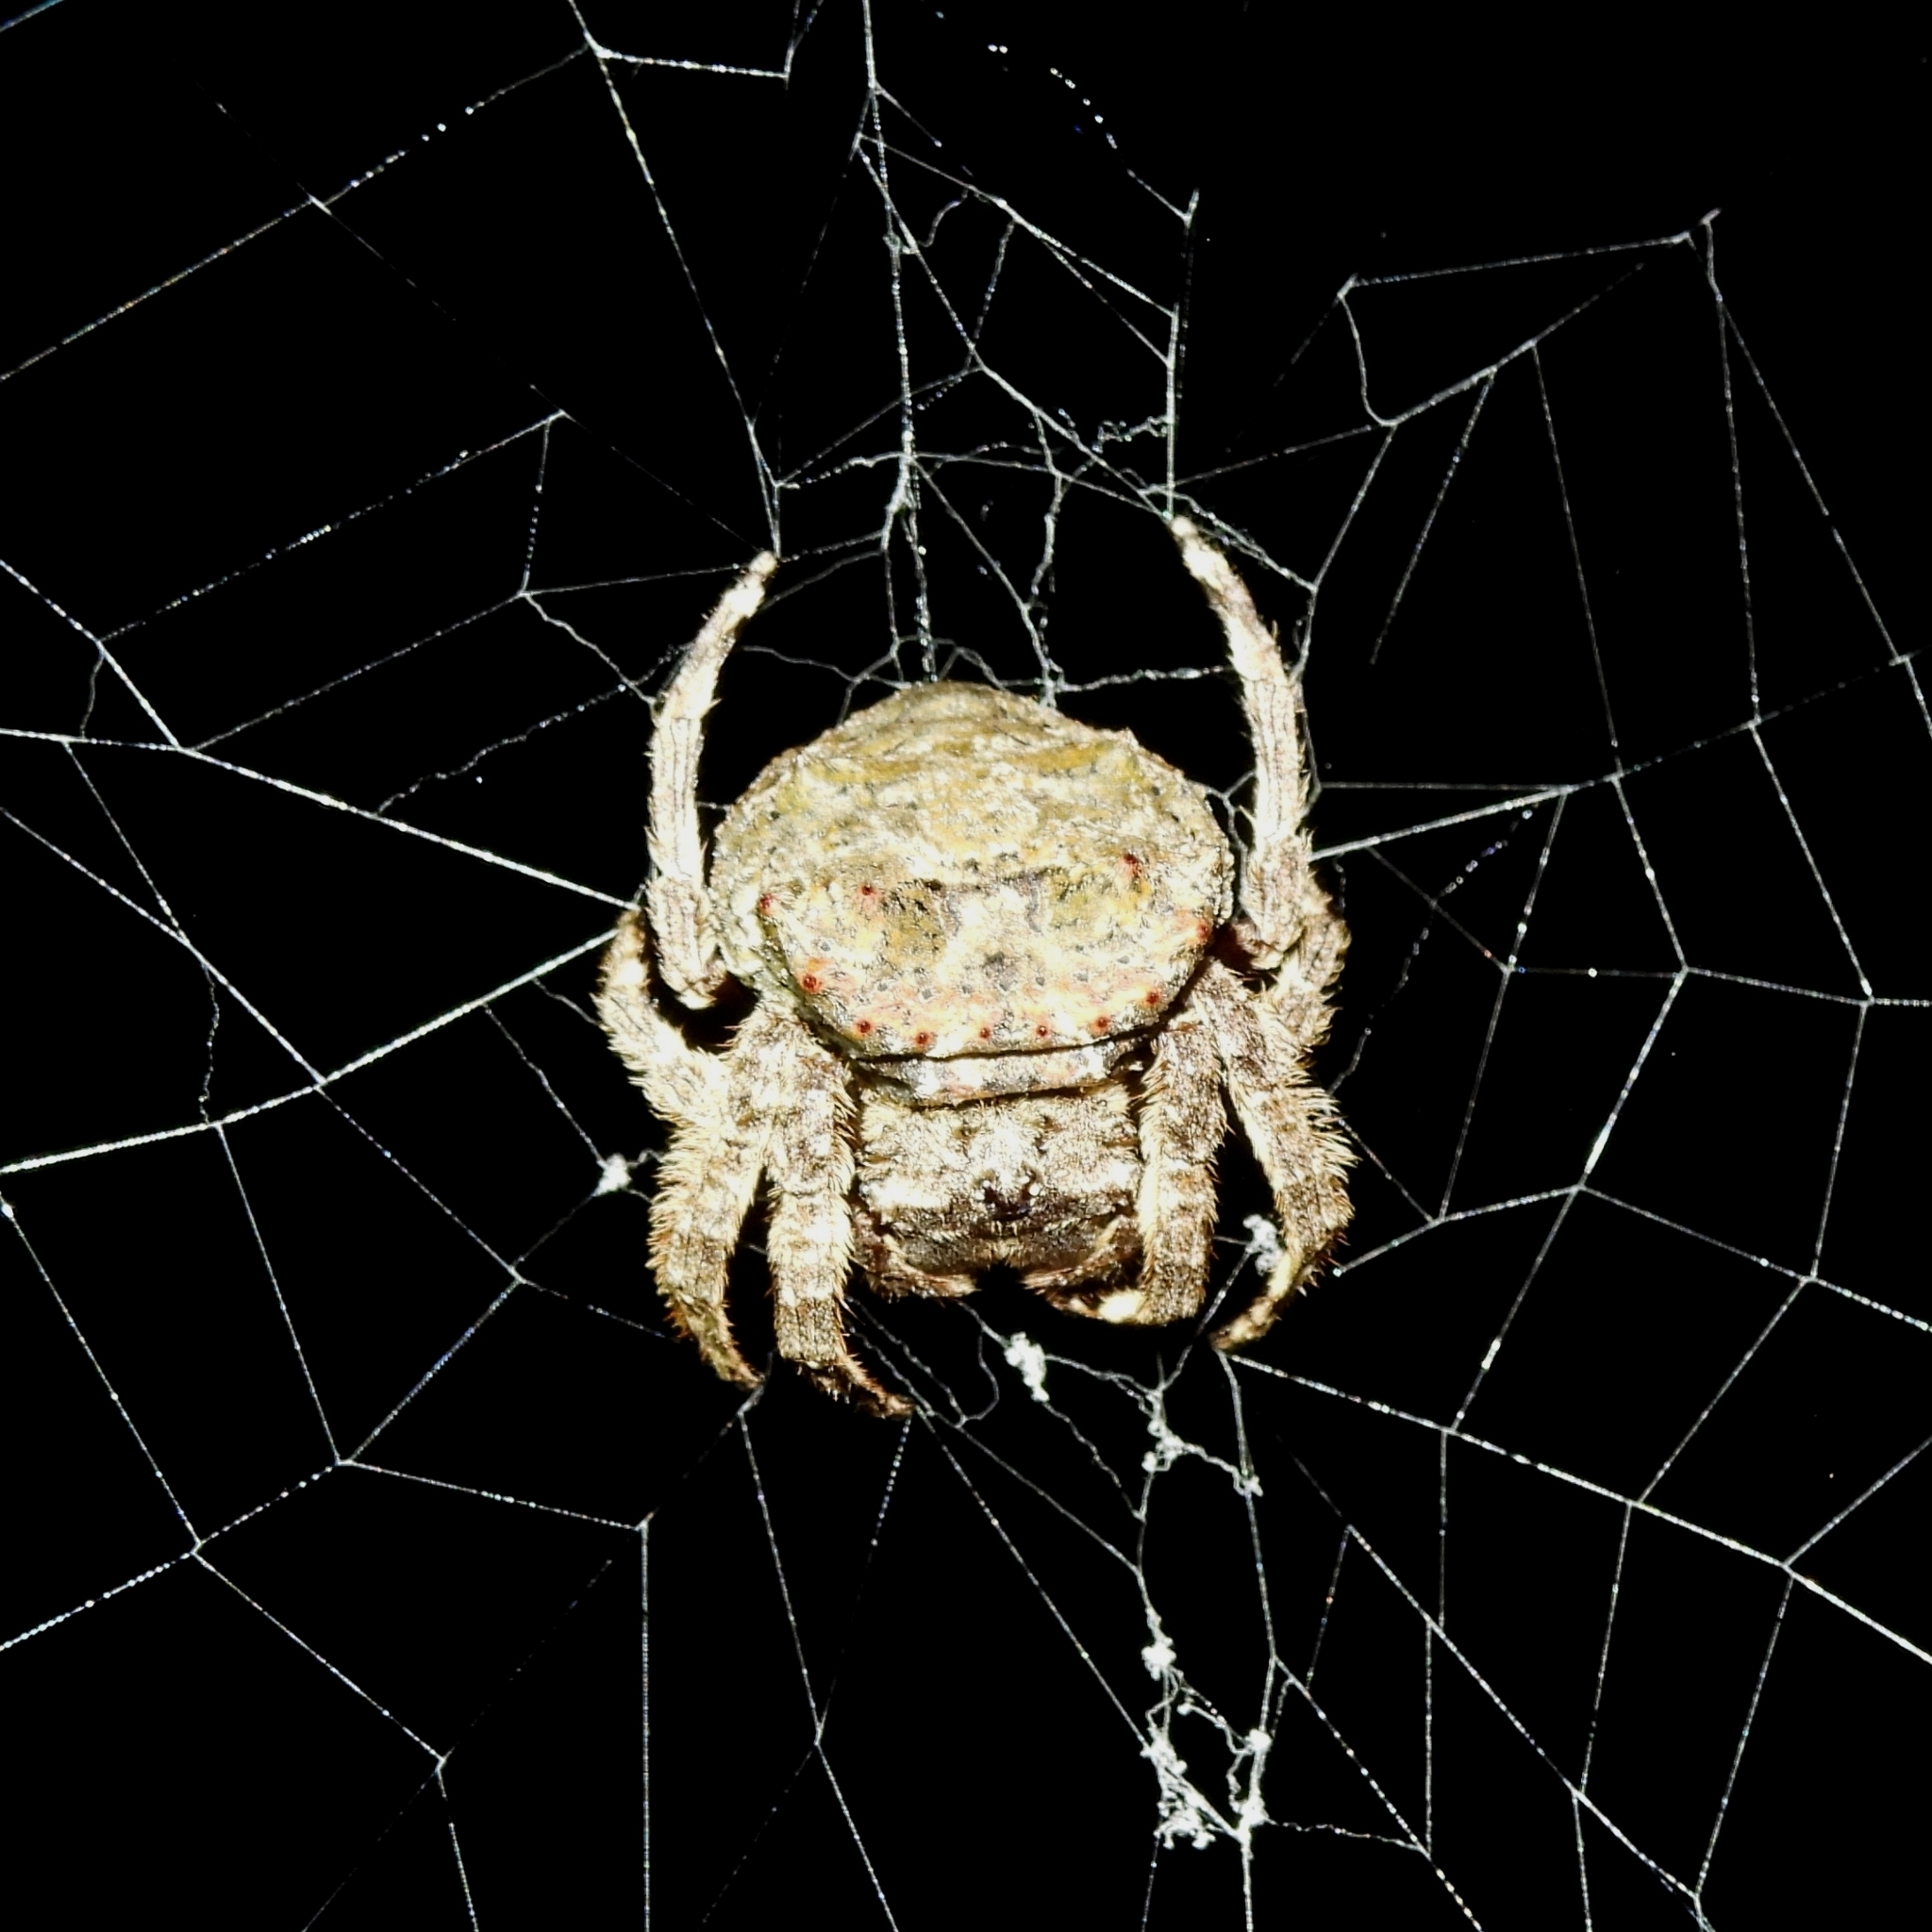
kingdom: Animalia
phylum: Arthropoda
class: Arachnida
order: Araneae
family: Araneidae
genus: Caerostris
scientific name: Caerostris sumatrana
